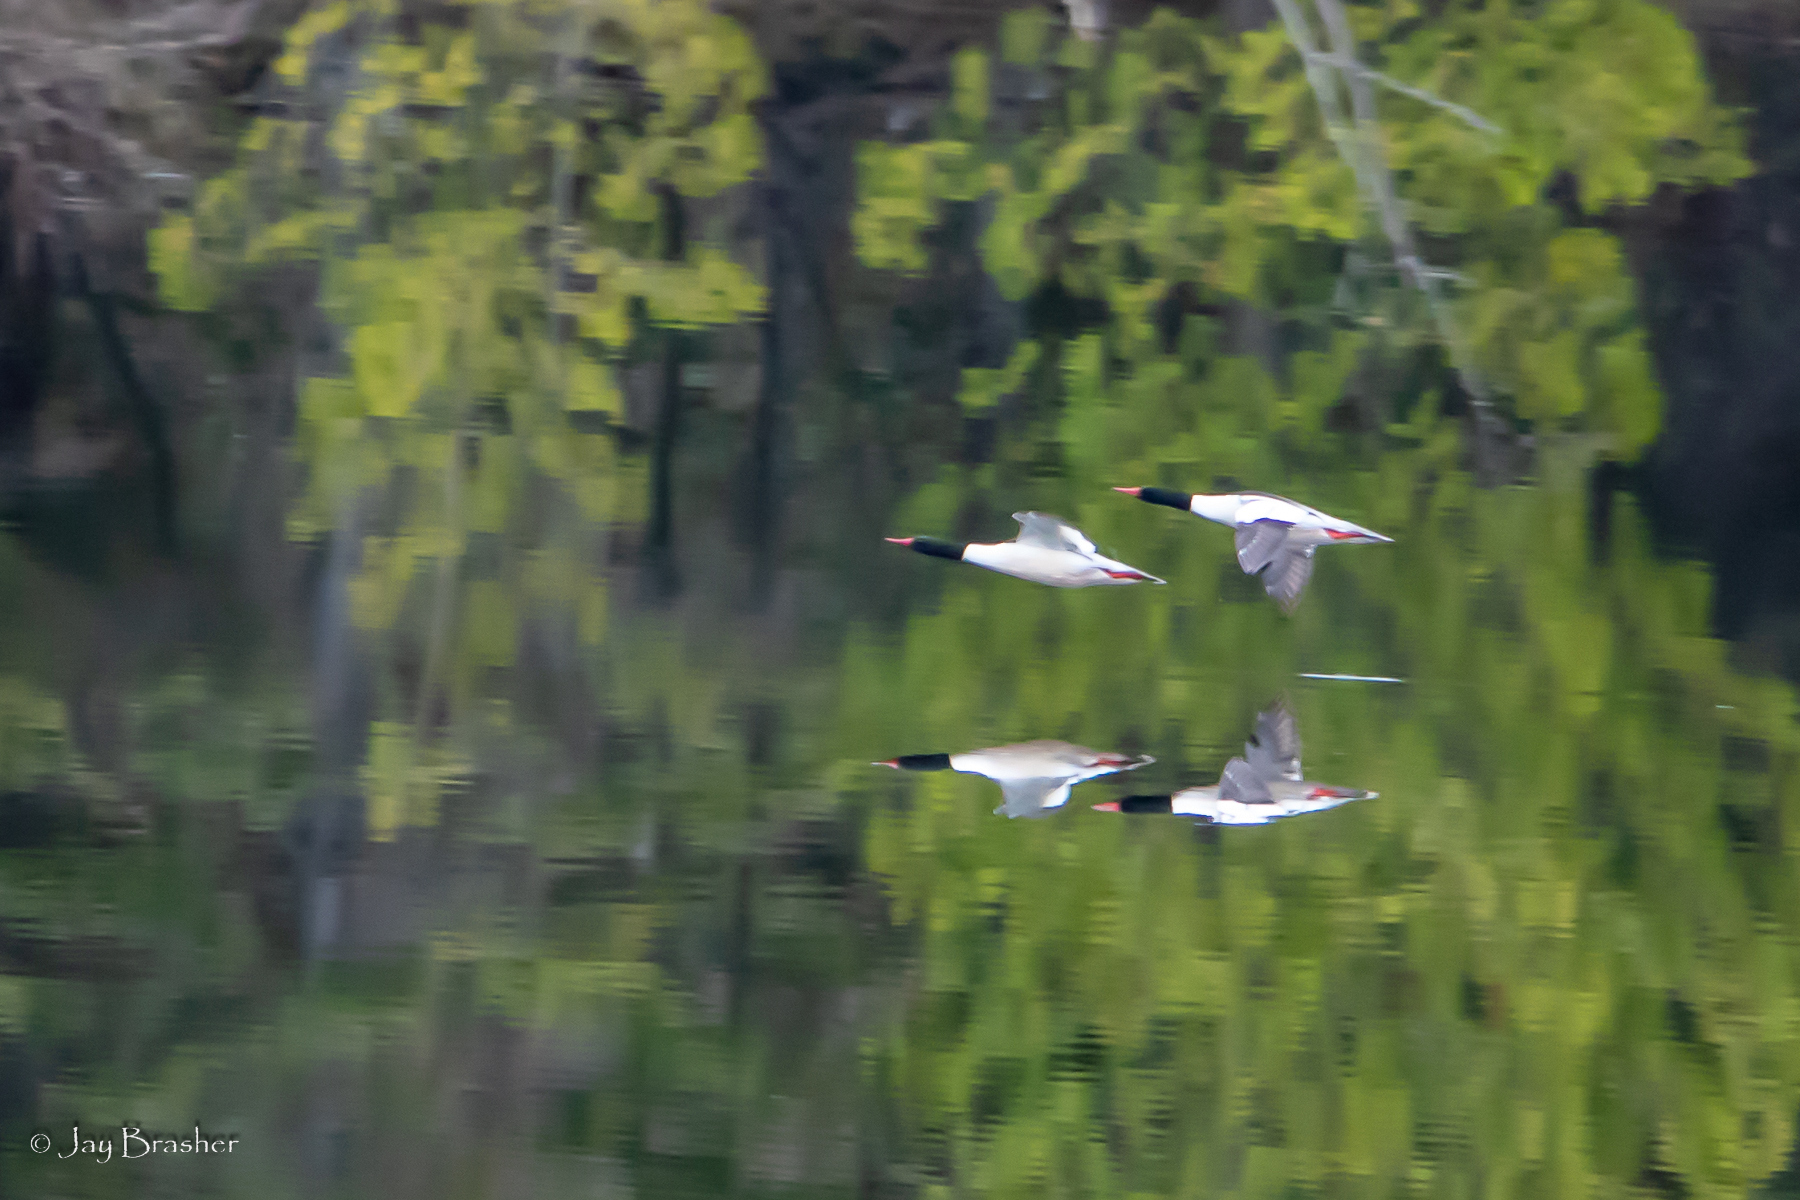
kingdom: Animalia
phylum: Chordata
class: Aves
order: Anseriformes
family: Anatidae
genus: Mergus
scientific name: Mergus merganser
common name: Common merganser
